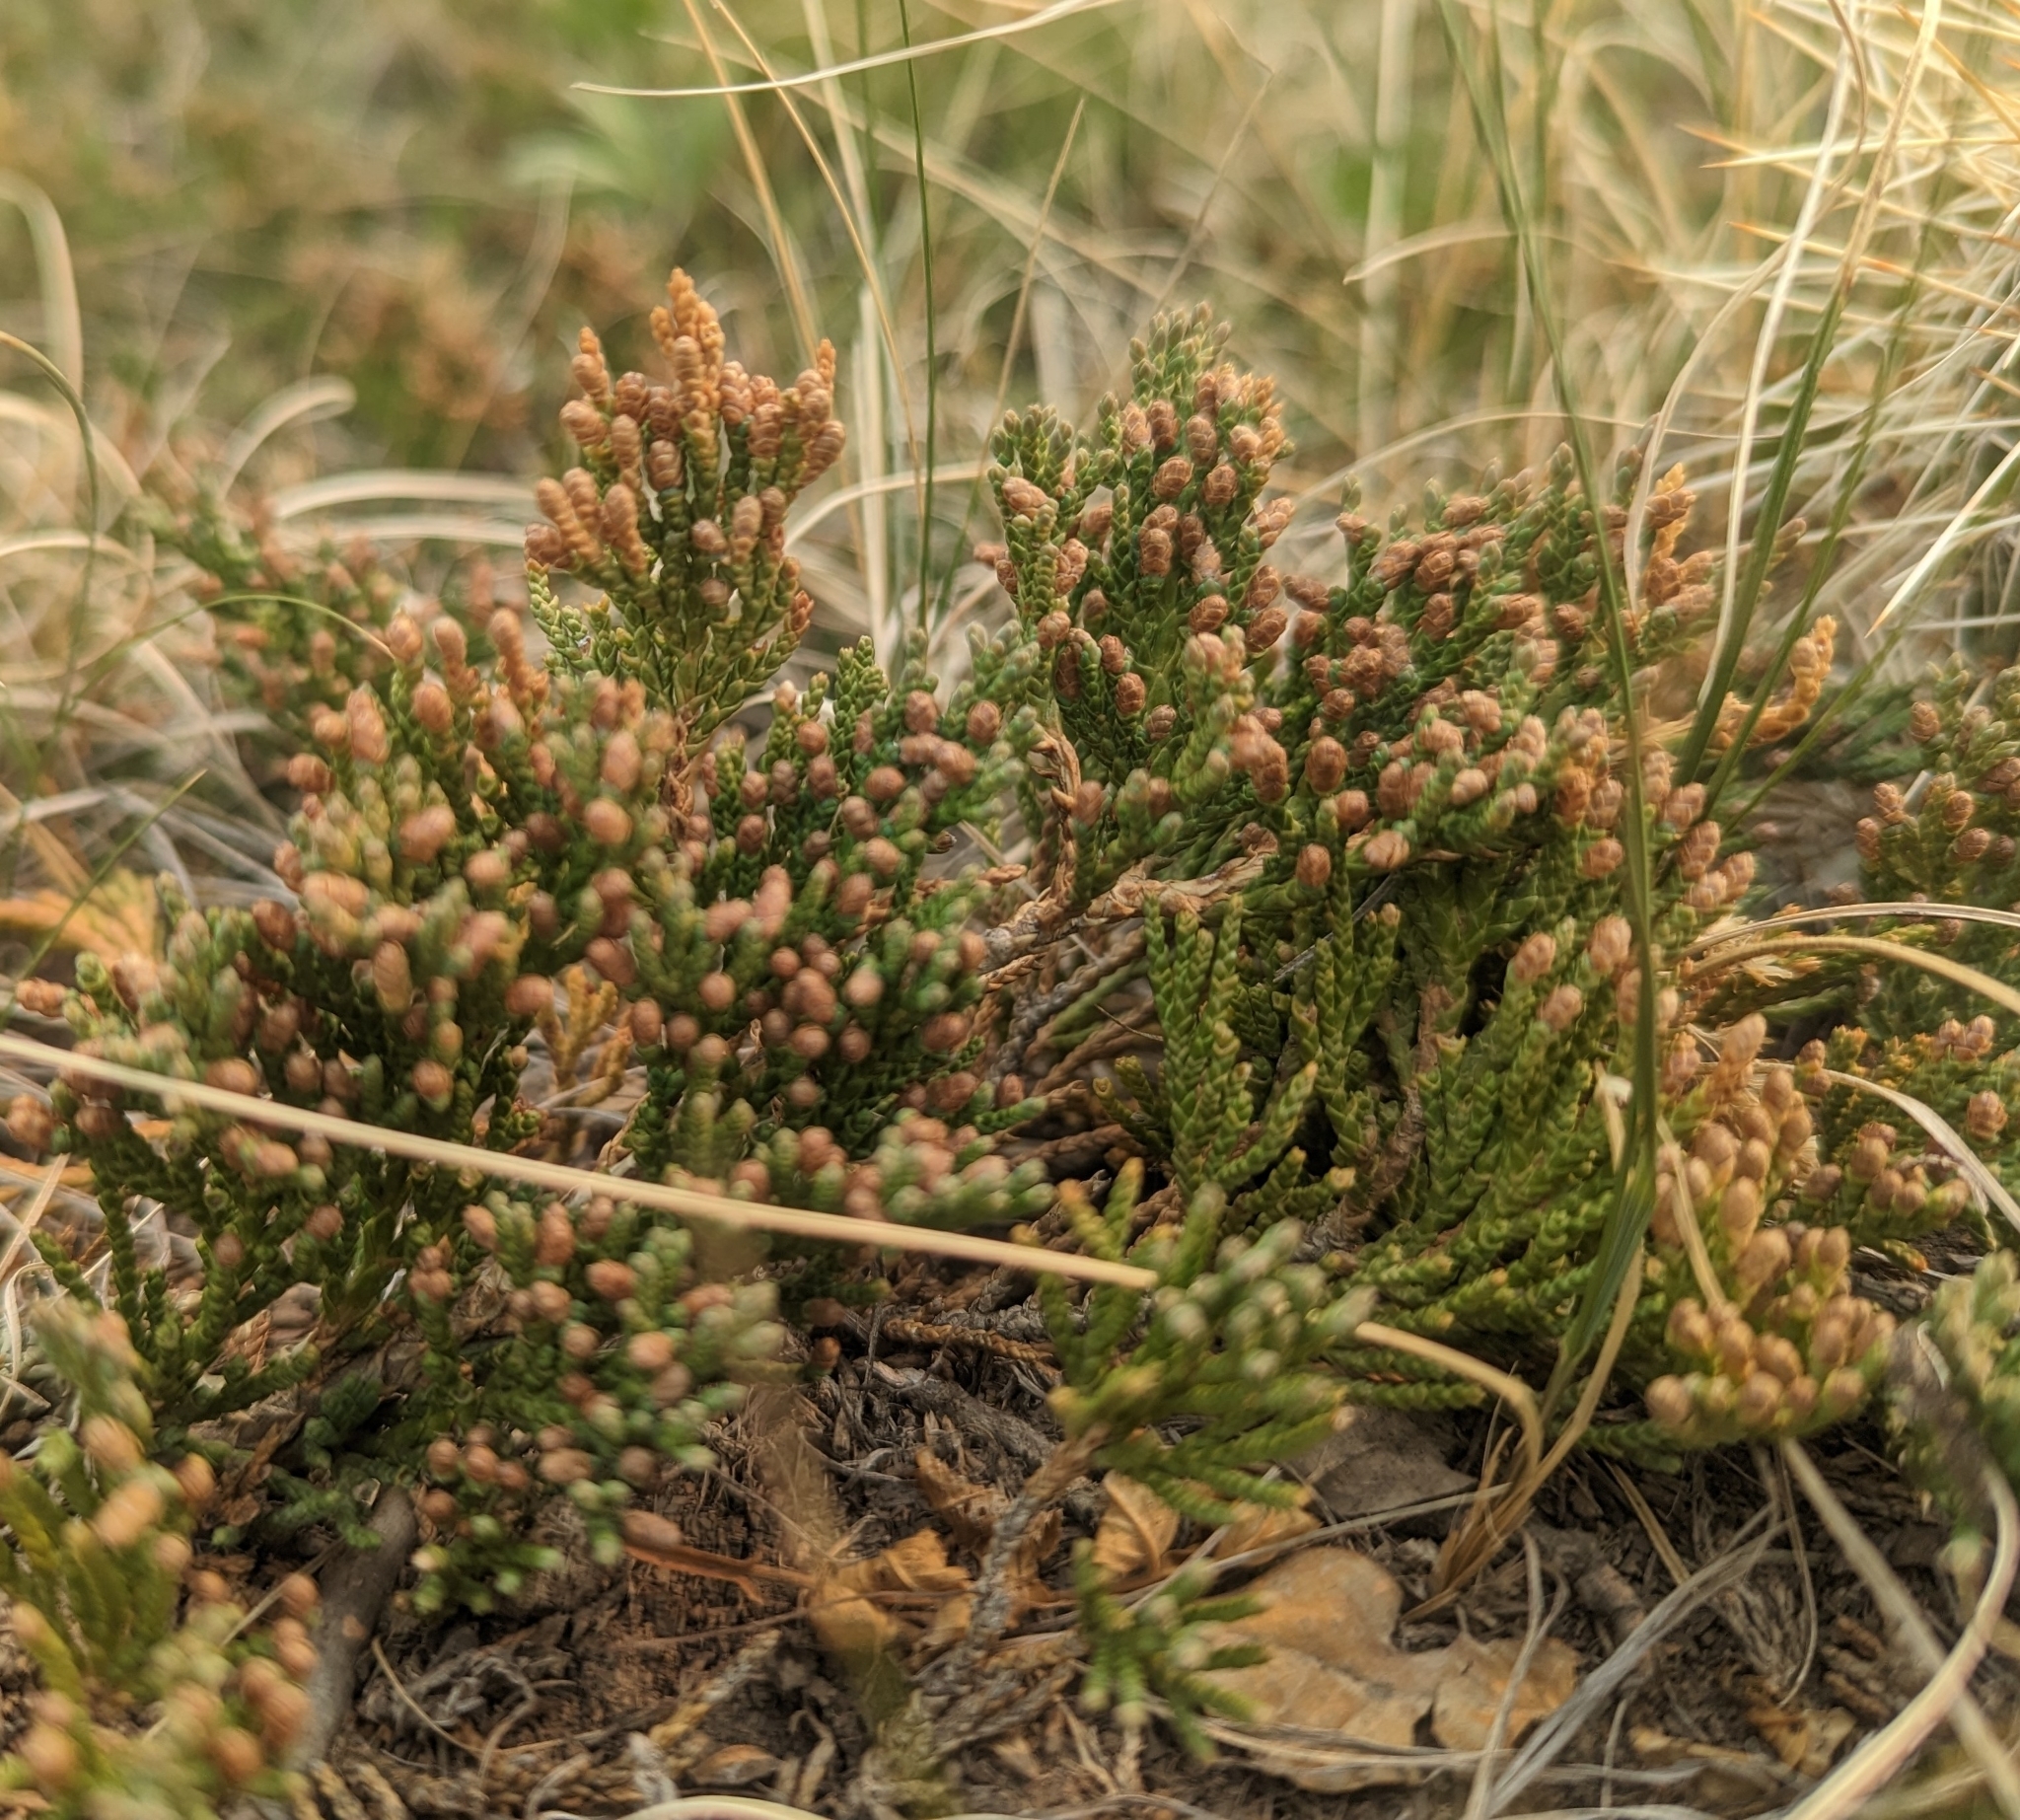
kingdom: Plantae
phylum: Tracheophyta
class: Pinopsida
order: Pinales
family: Cupressaceae
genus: Juniperus
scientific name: Juniperus horizontalis
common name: Creeping juniper
